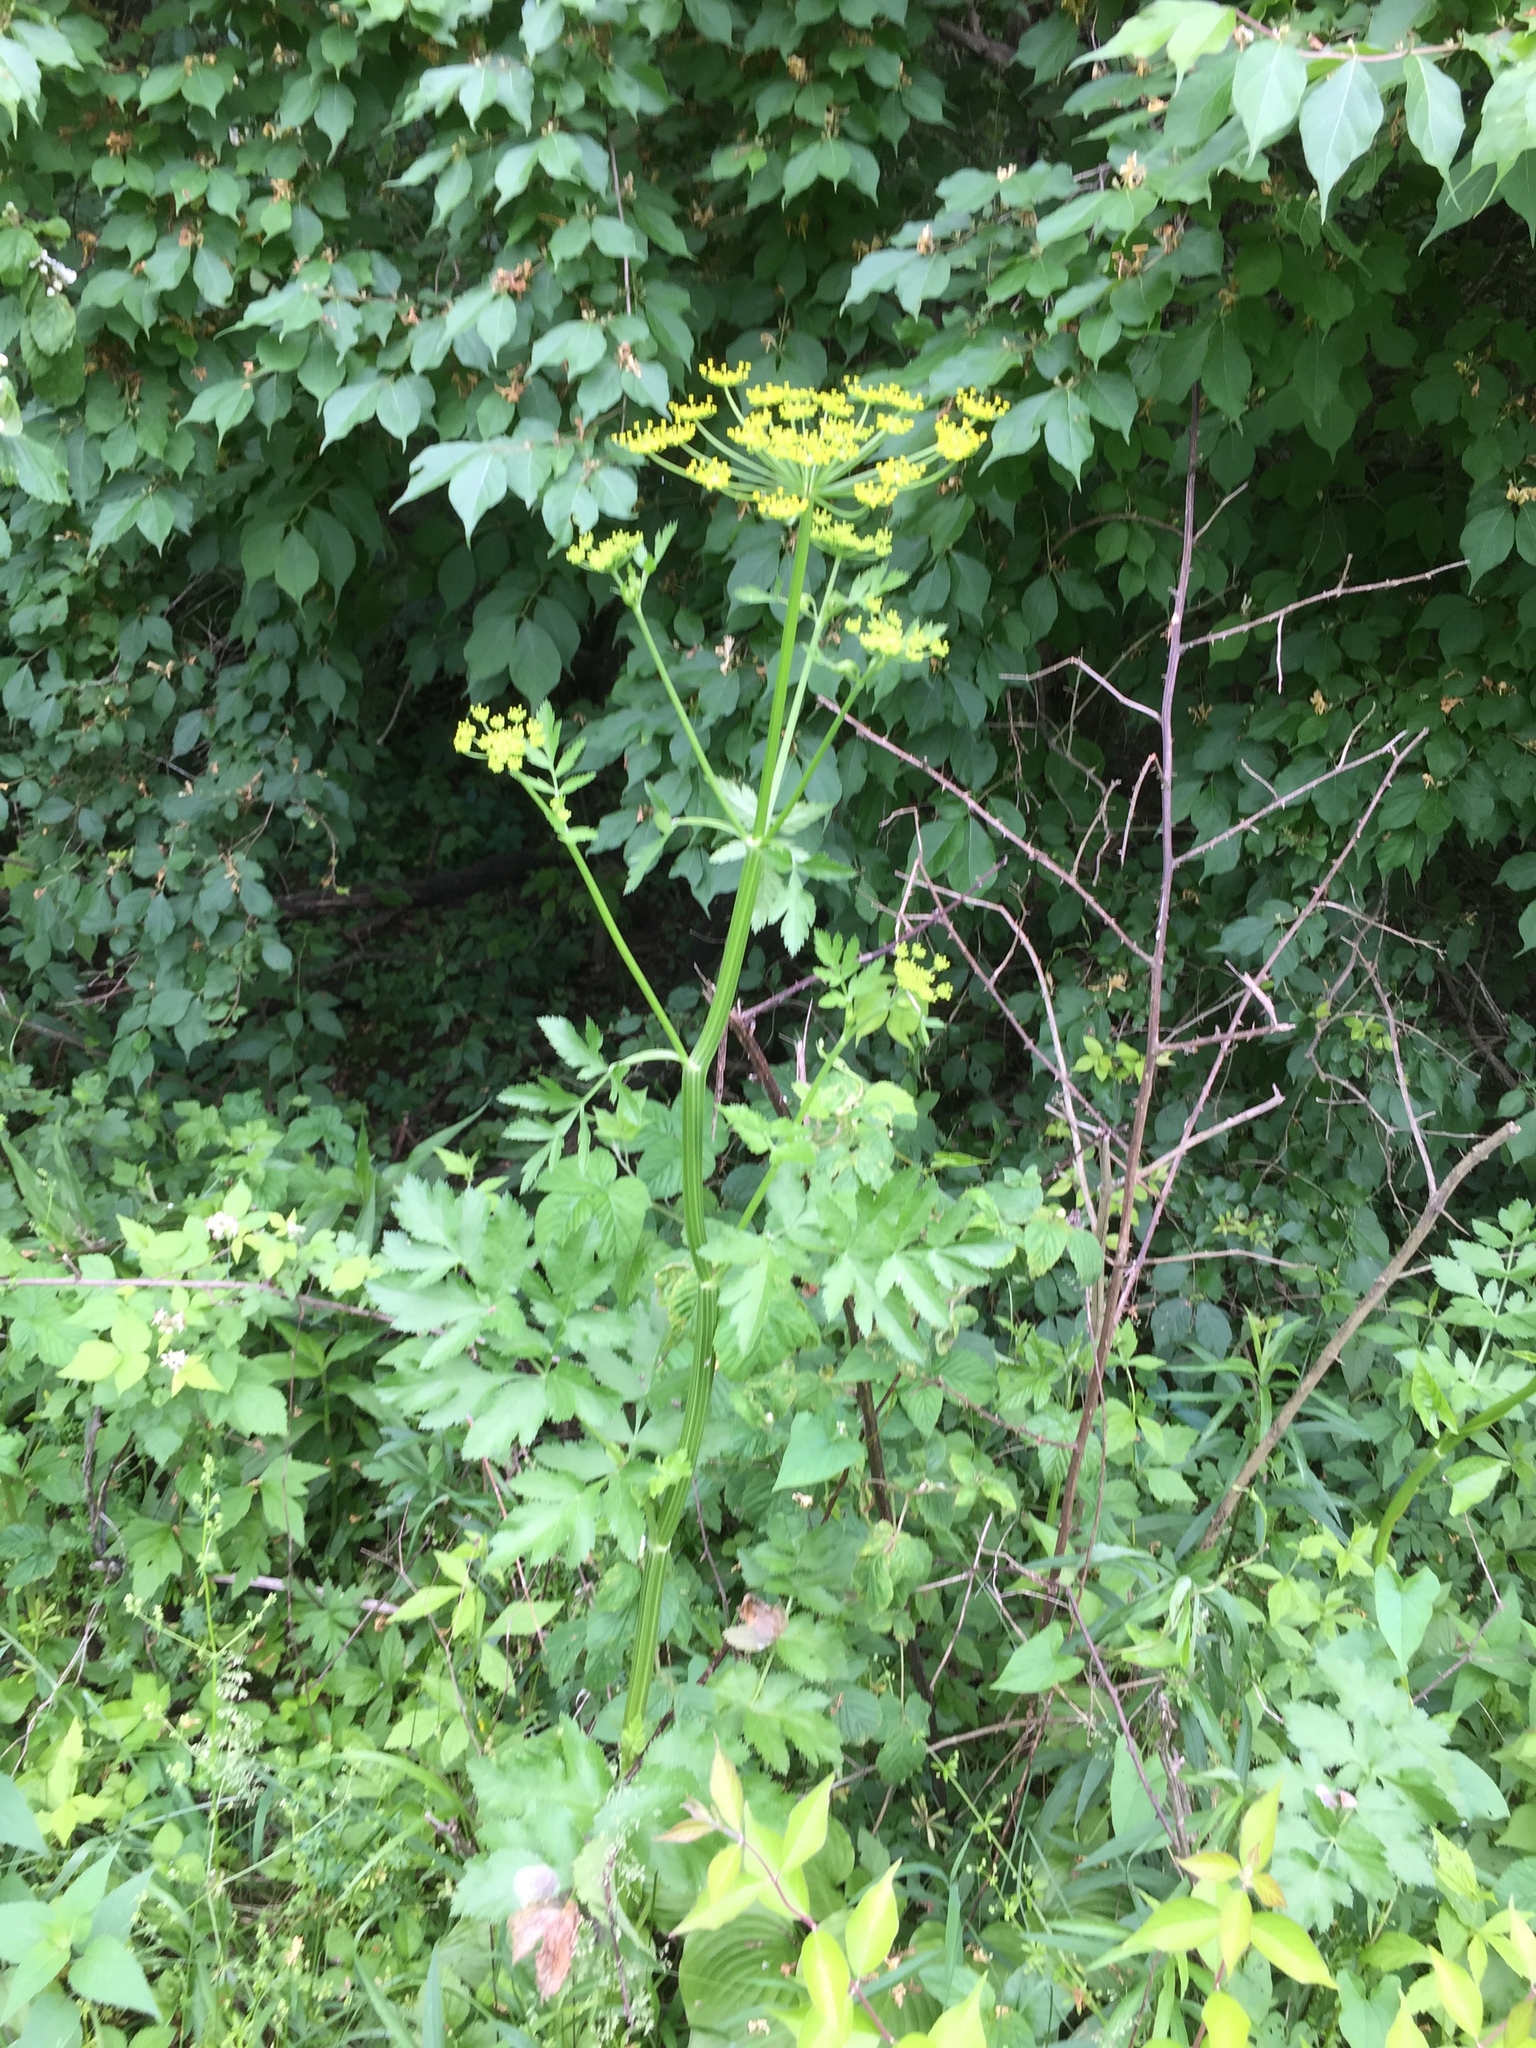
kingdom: Plantae
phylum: Tracheophyta
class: Magnoliopsida
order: Apiales
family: Apiaceae
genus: Pastinaca
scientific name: Pastinaca sativa
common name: Wild parsnip
